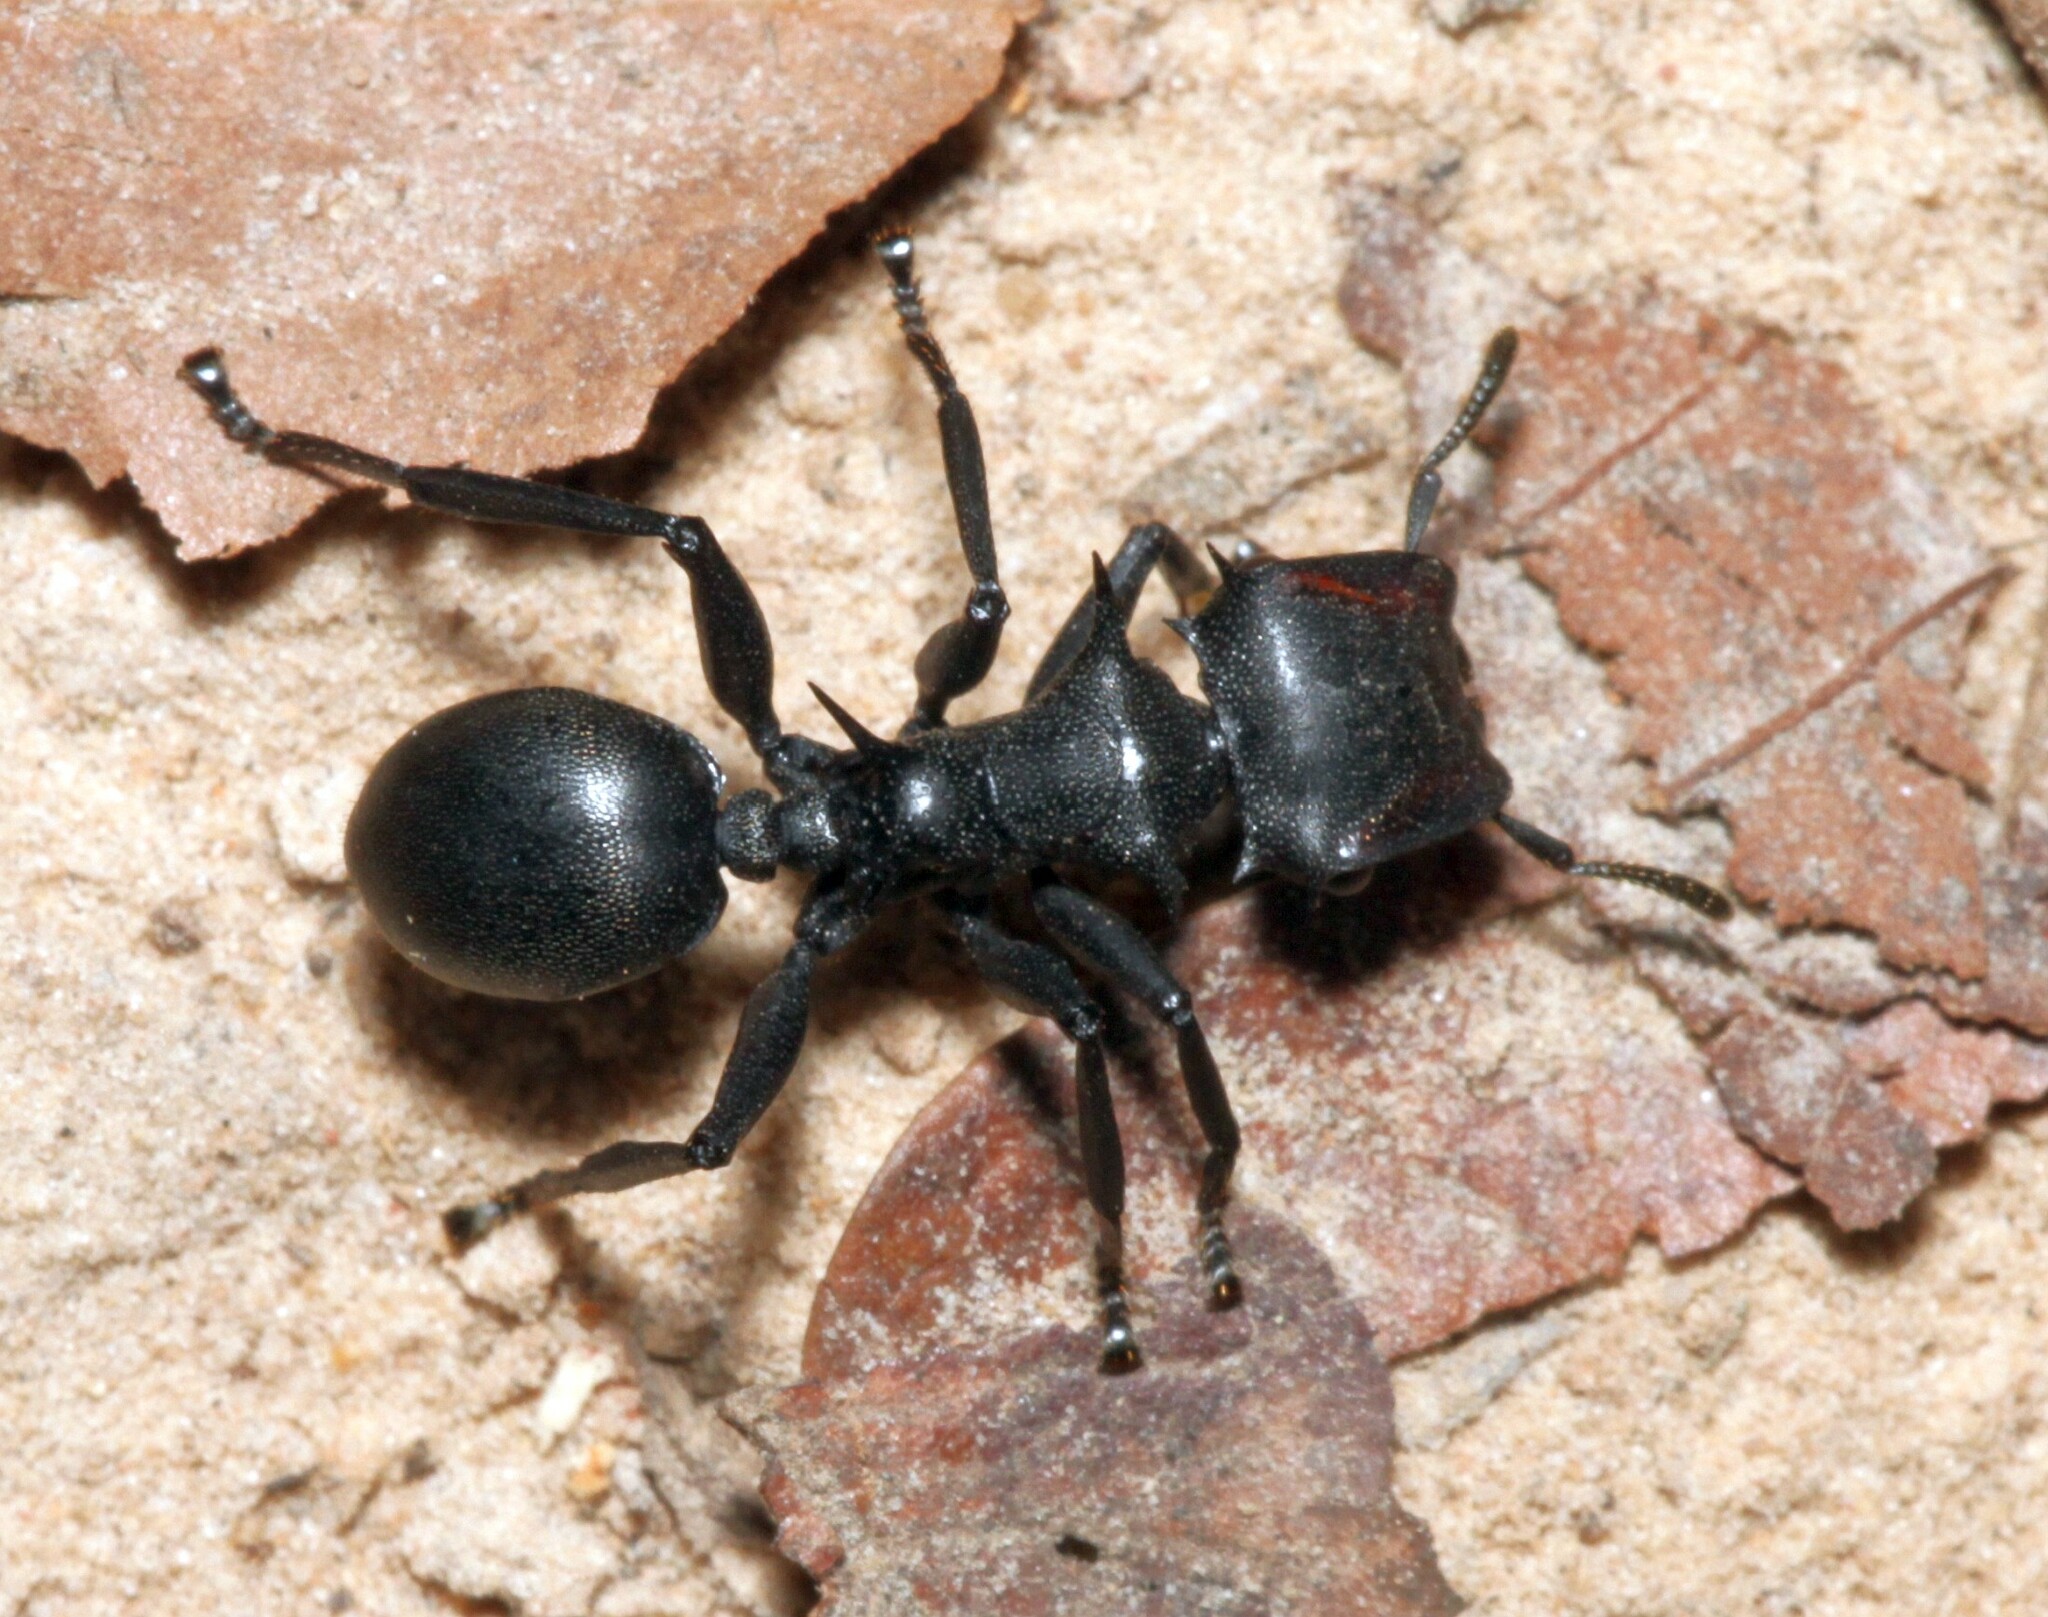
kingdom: Animalia
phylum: Arthropoda
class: Insecta
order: Hymenoptera
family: Formicidae
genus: Cephalotes
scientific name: Cephalotes atratus
